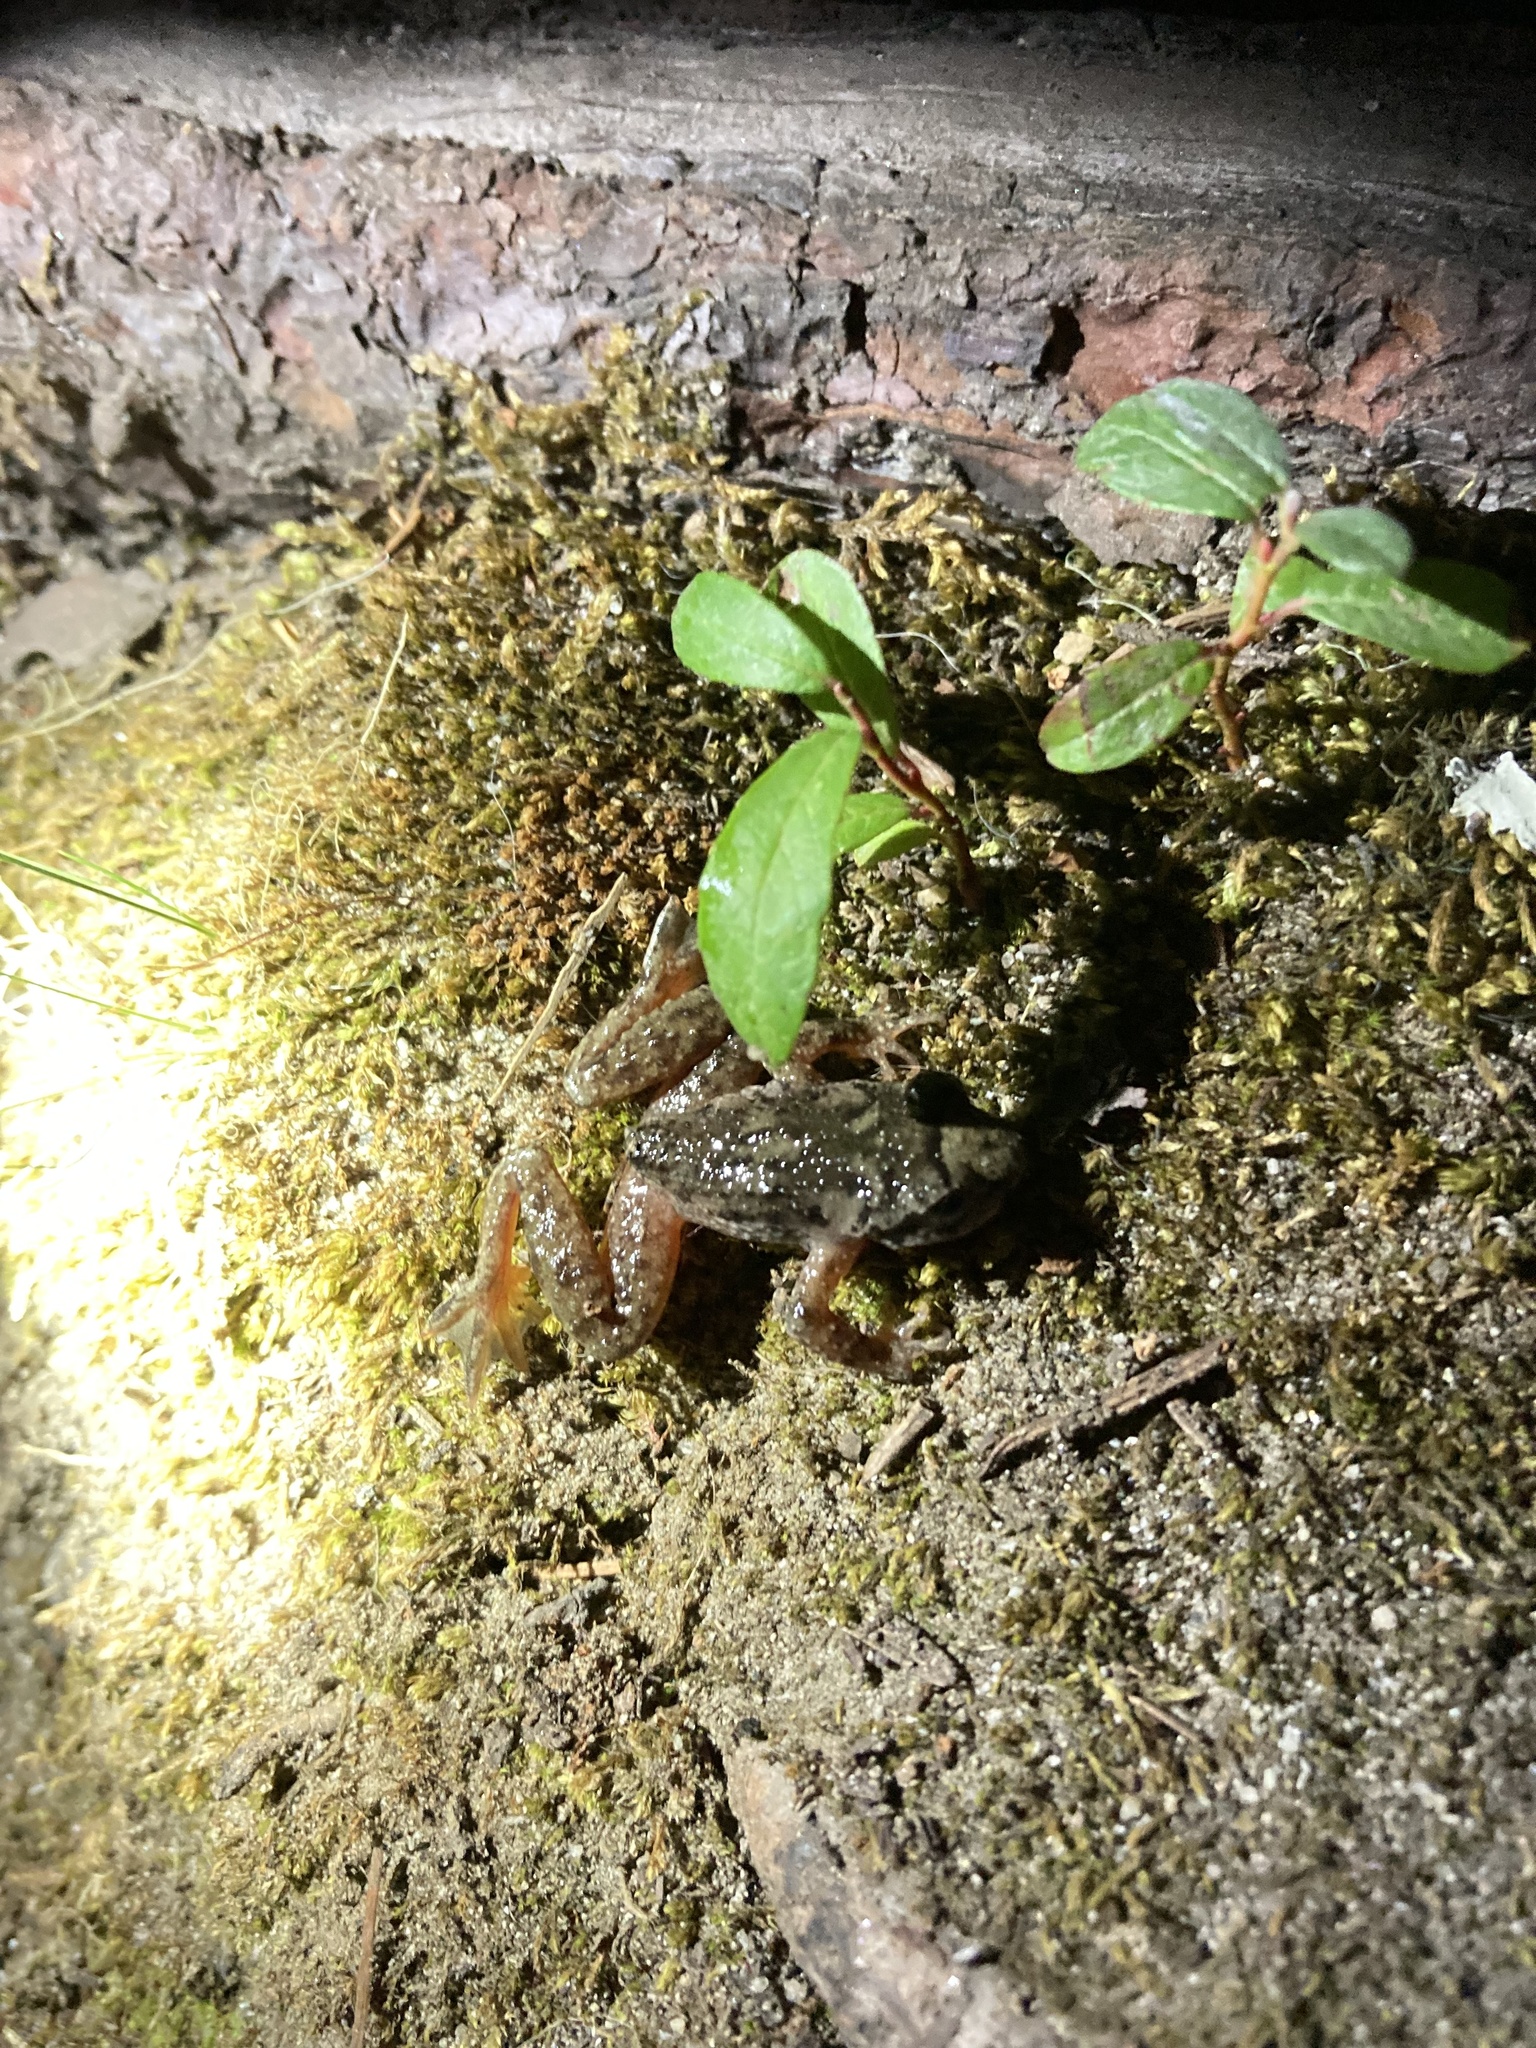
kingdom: Animalia
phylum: Chordata
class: Amphibia
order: Anura
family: Ascaphidae
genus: Ascaphus
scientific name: Ascaphus truei
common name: Tailed frog
